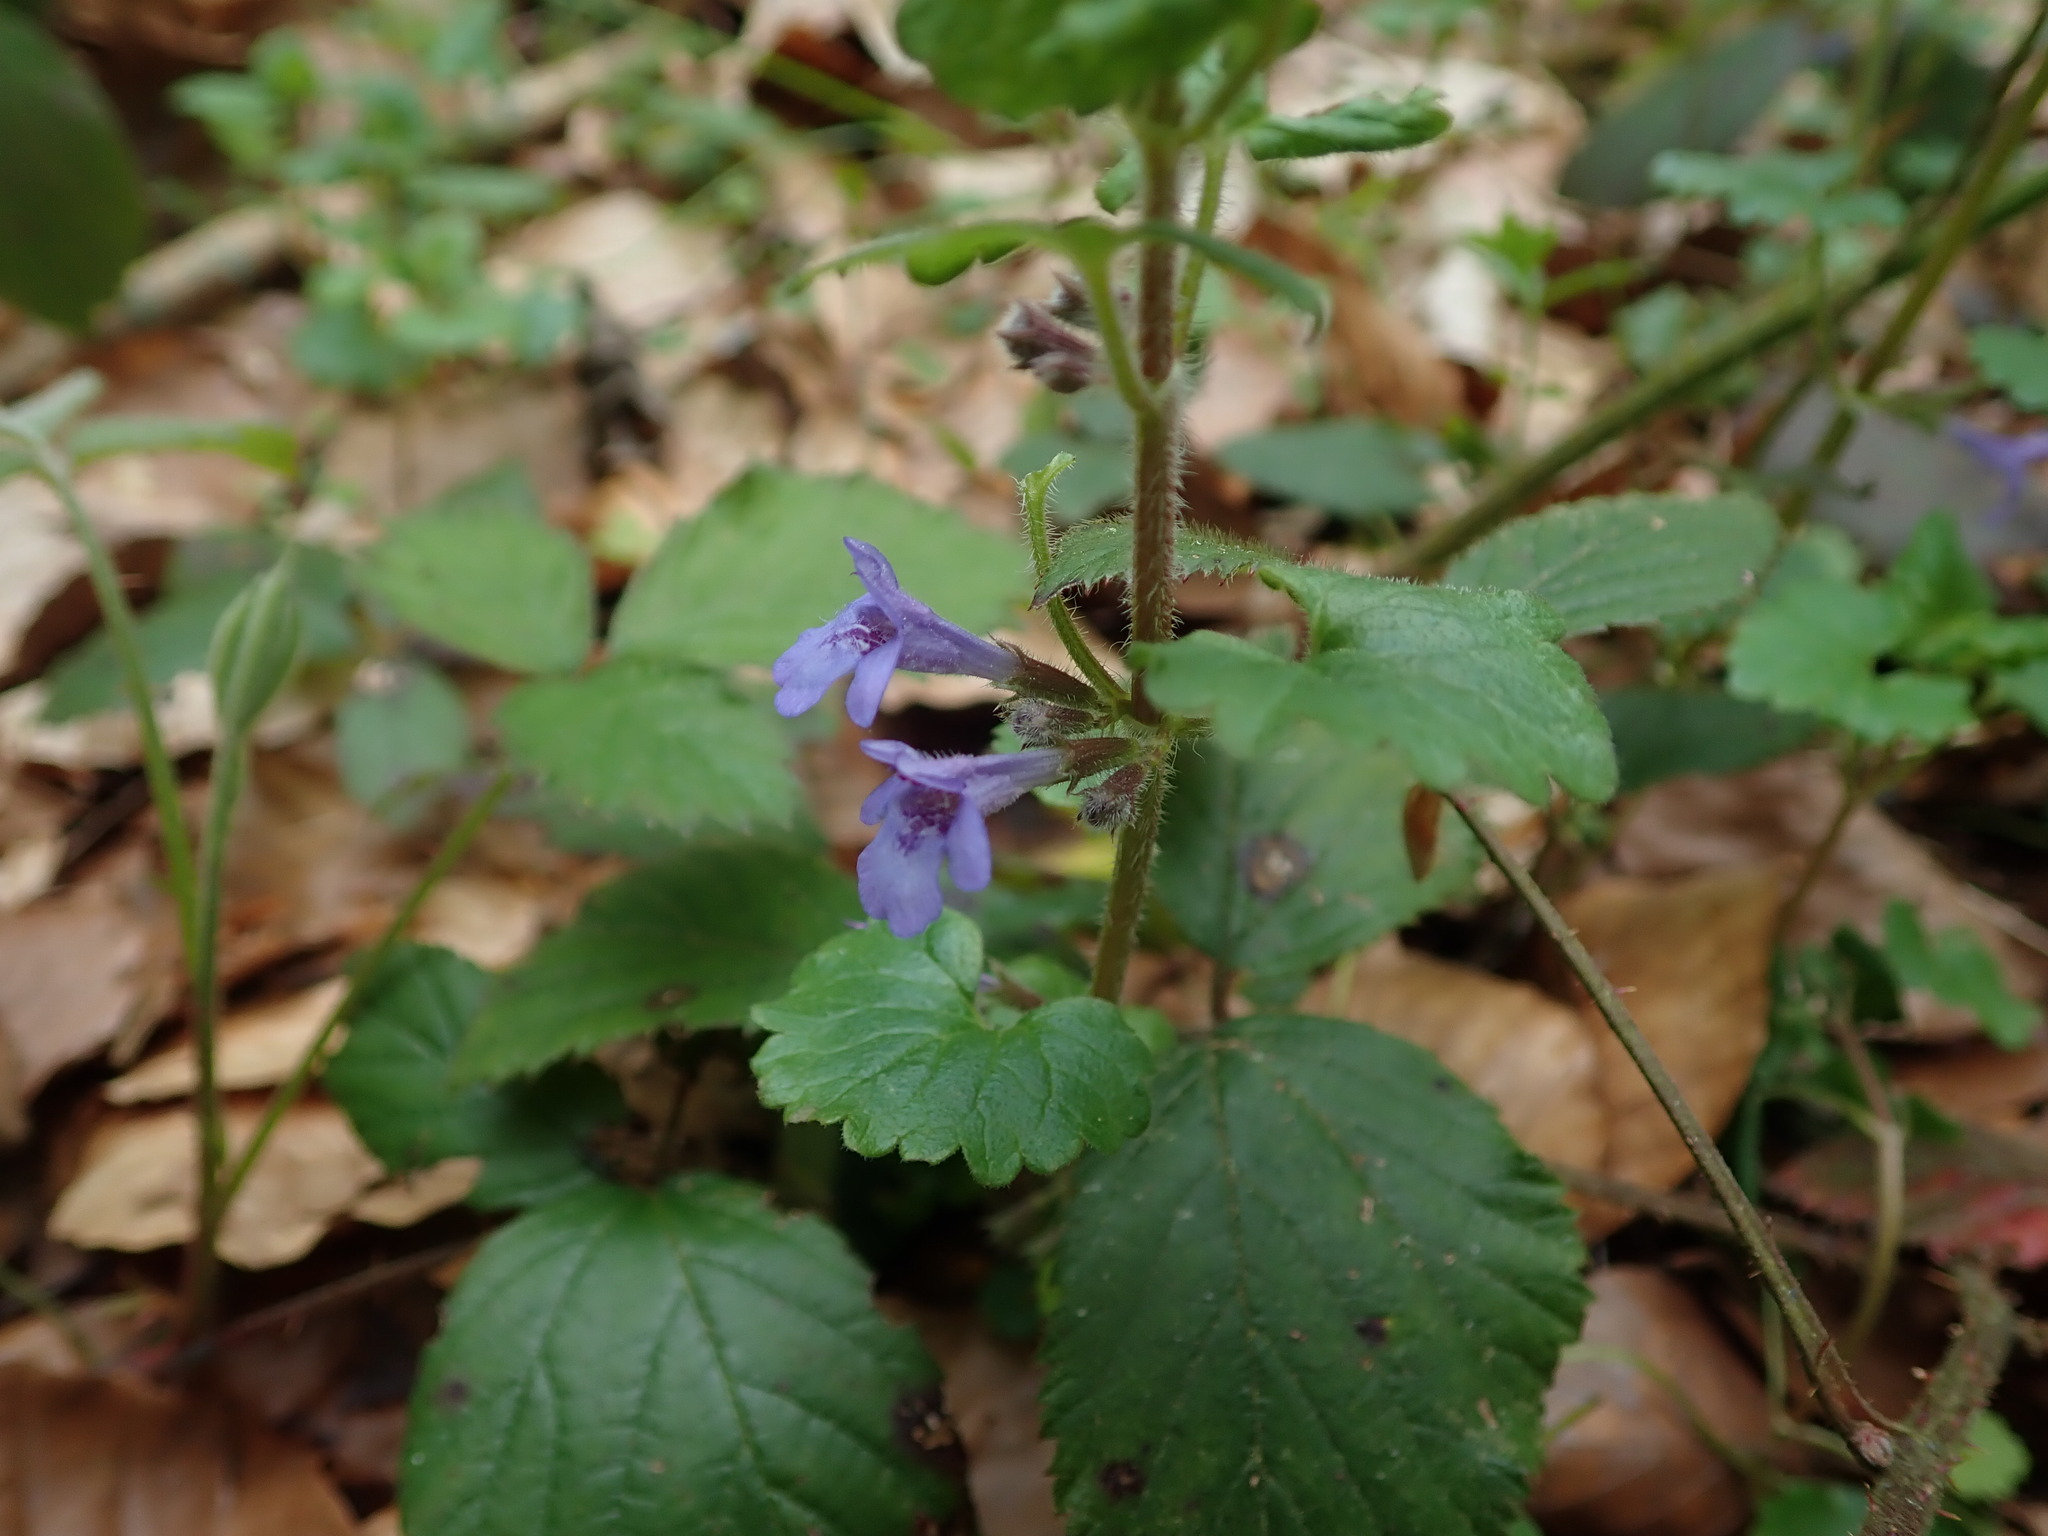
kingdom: Plantae
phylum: Tracheophyta
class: Magnoliopsida
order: Lamiales
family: Lamiaceae
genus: Glechoma
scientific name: Glechoma hederacea
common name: Ground ivy
